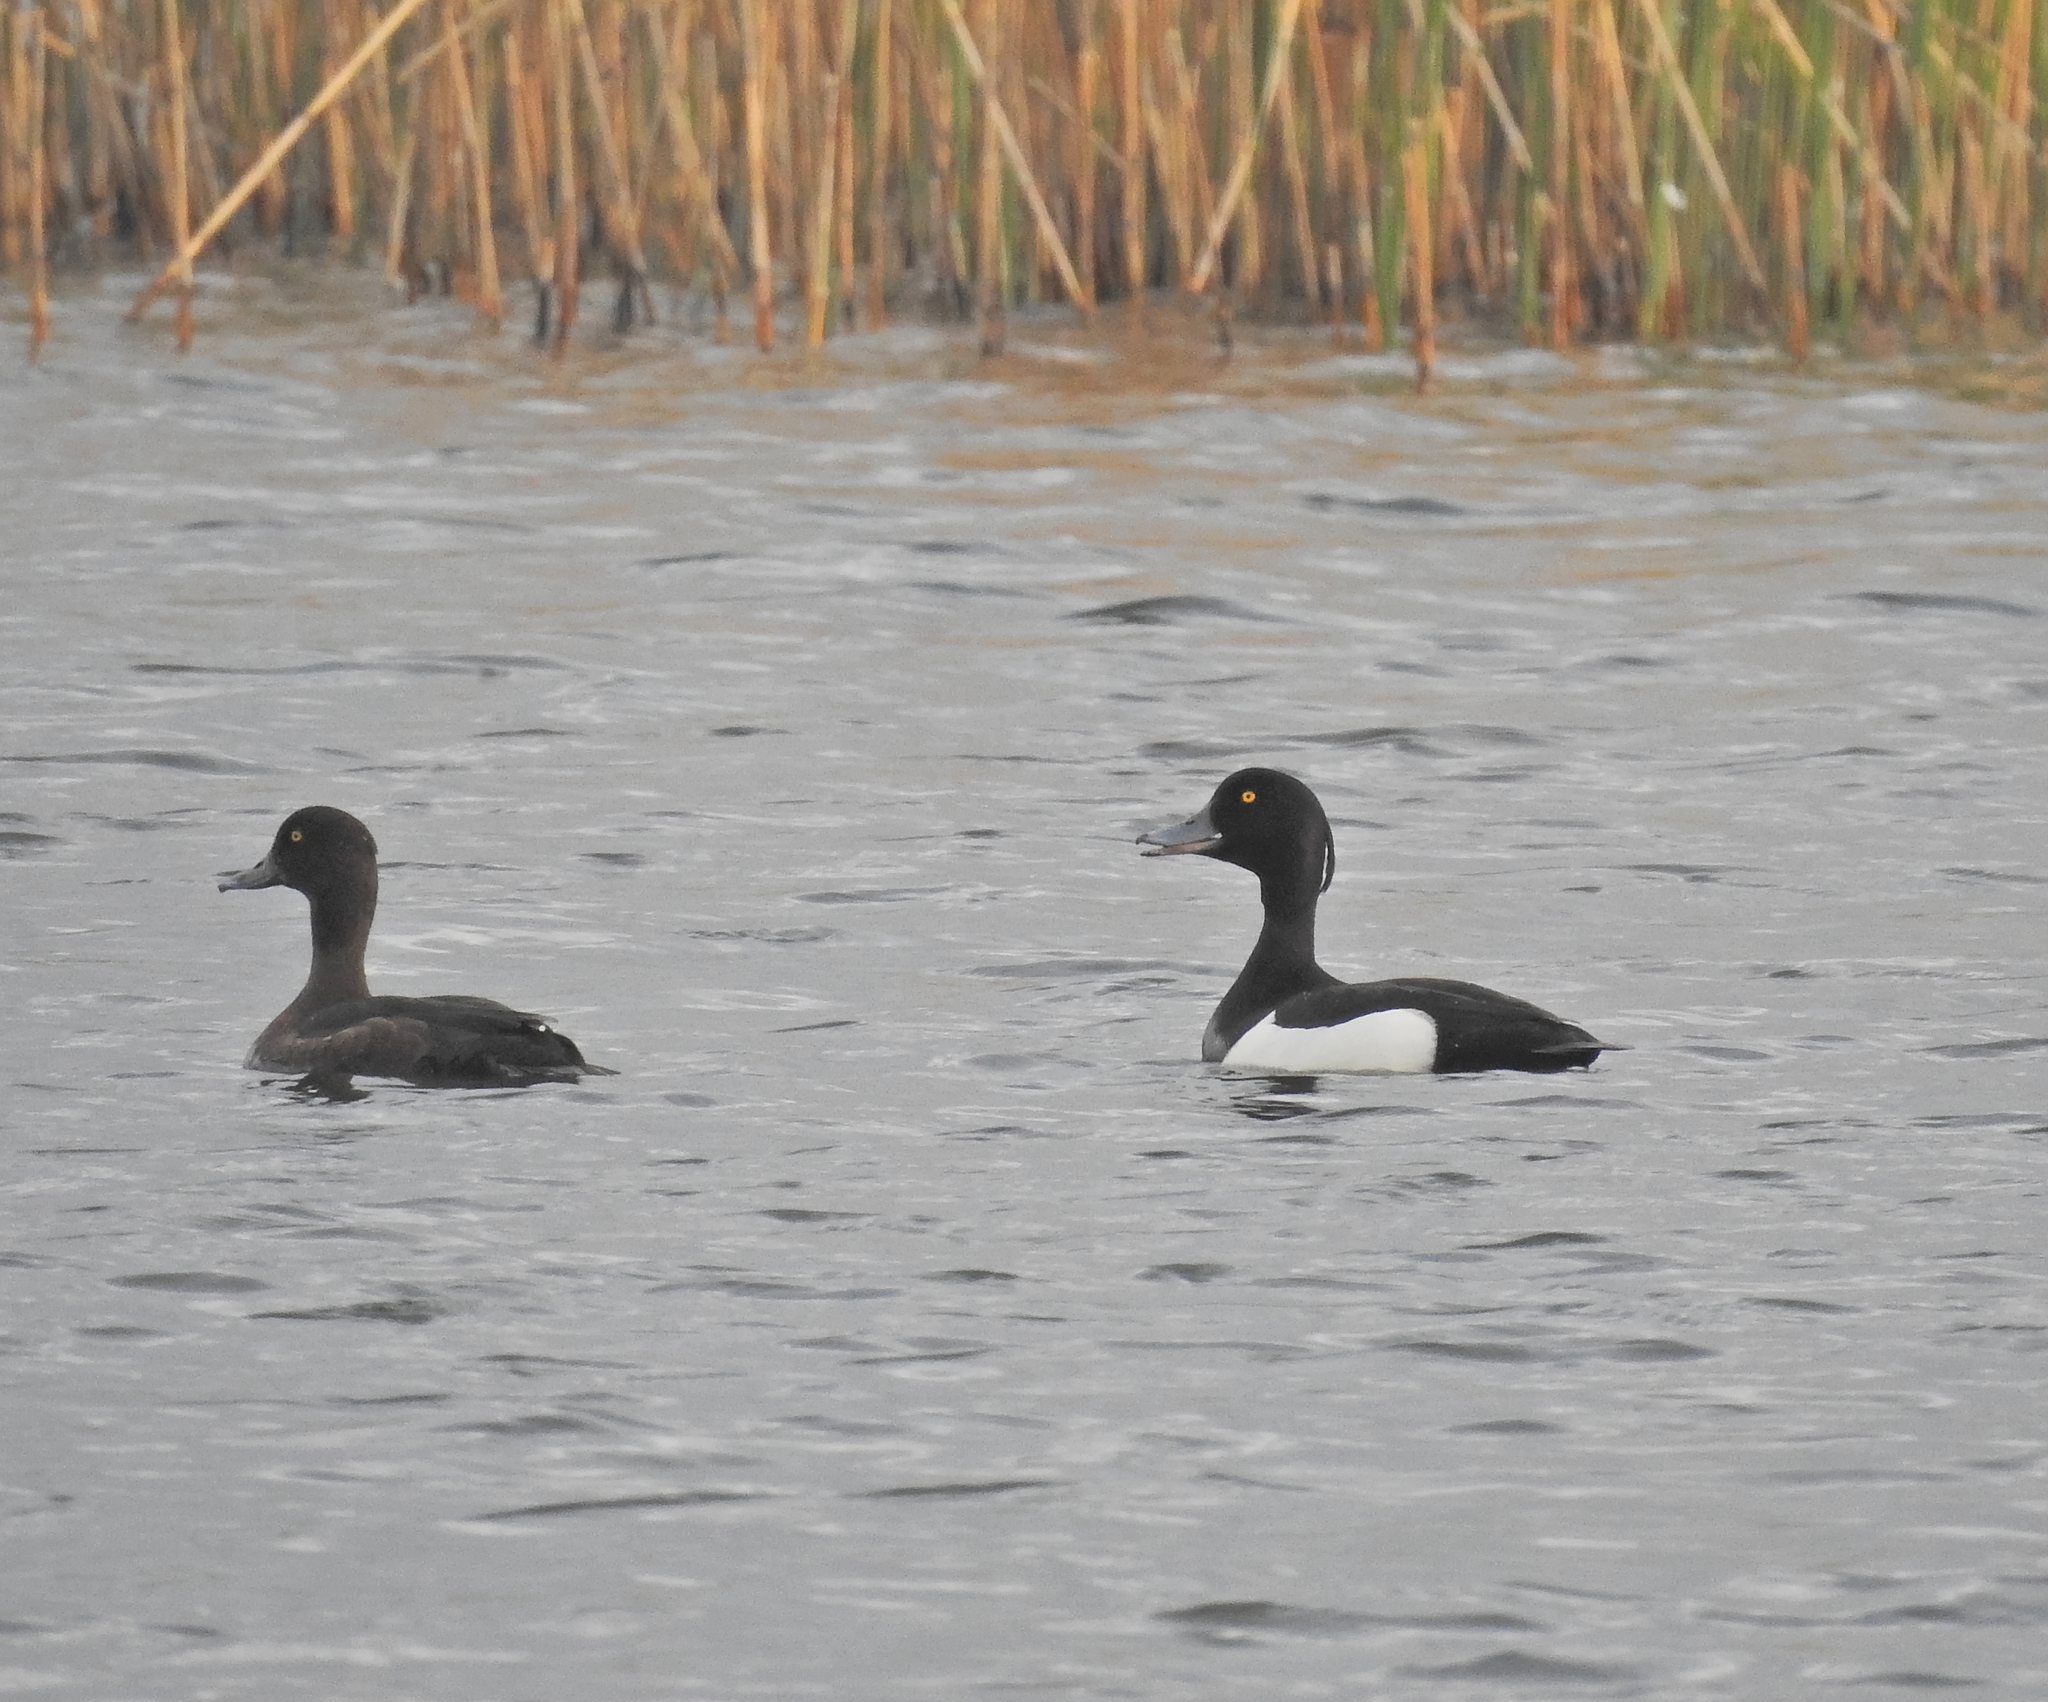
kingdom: Animalia
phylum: Chordata
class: Aves
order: Anseriformes
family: Anatidae
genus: Aythya
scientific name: Aythya fuligula
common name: Tufted duck
